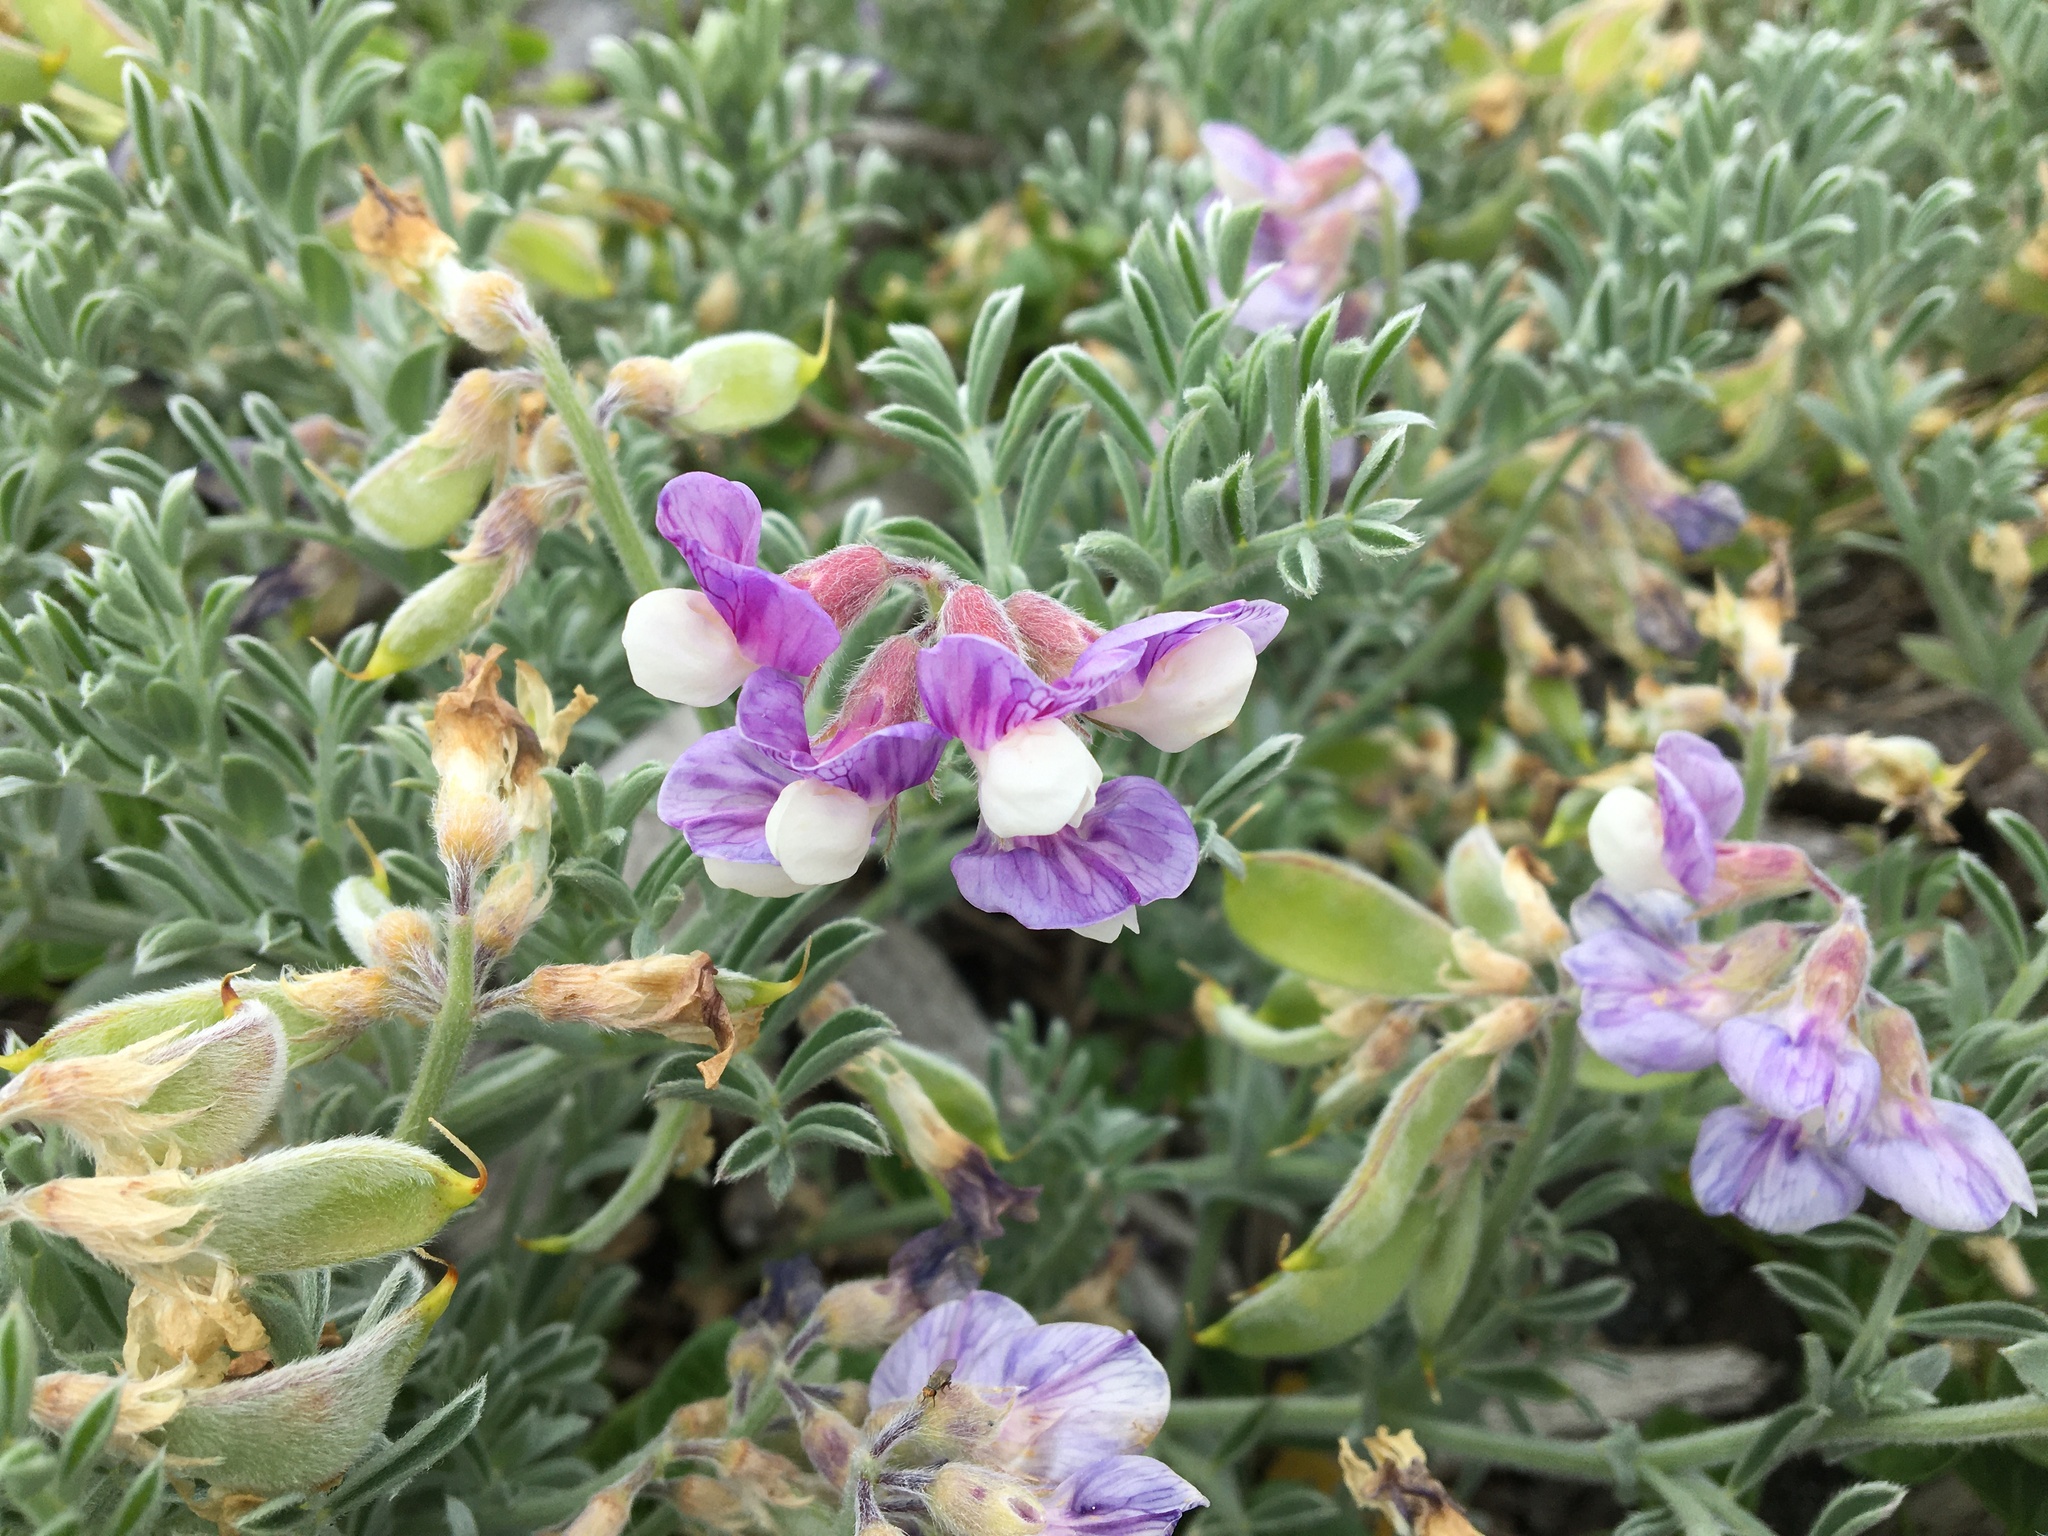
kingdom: Plantae
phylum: Tracheophyta
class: Magnoliopsida
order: Fabales
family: Fabaceae
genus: Lathyrus
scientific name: Lathyrus littoralis
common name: Dune sweet pea
